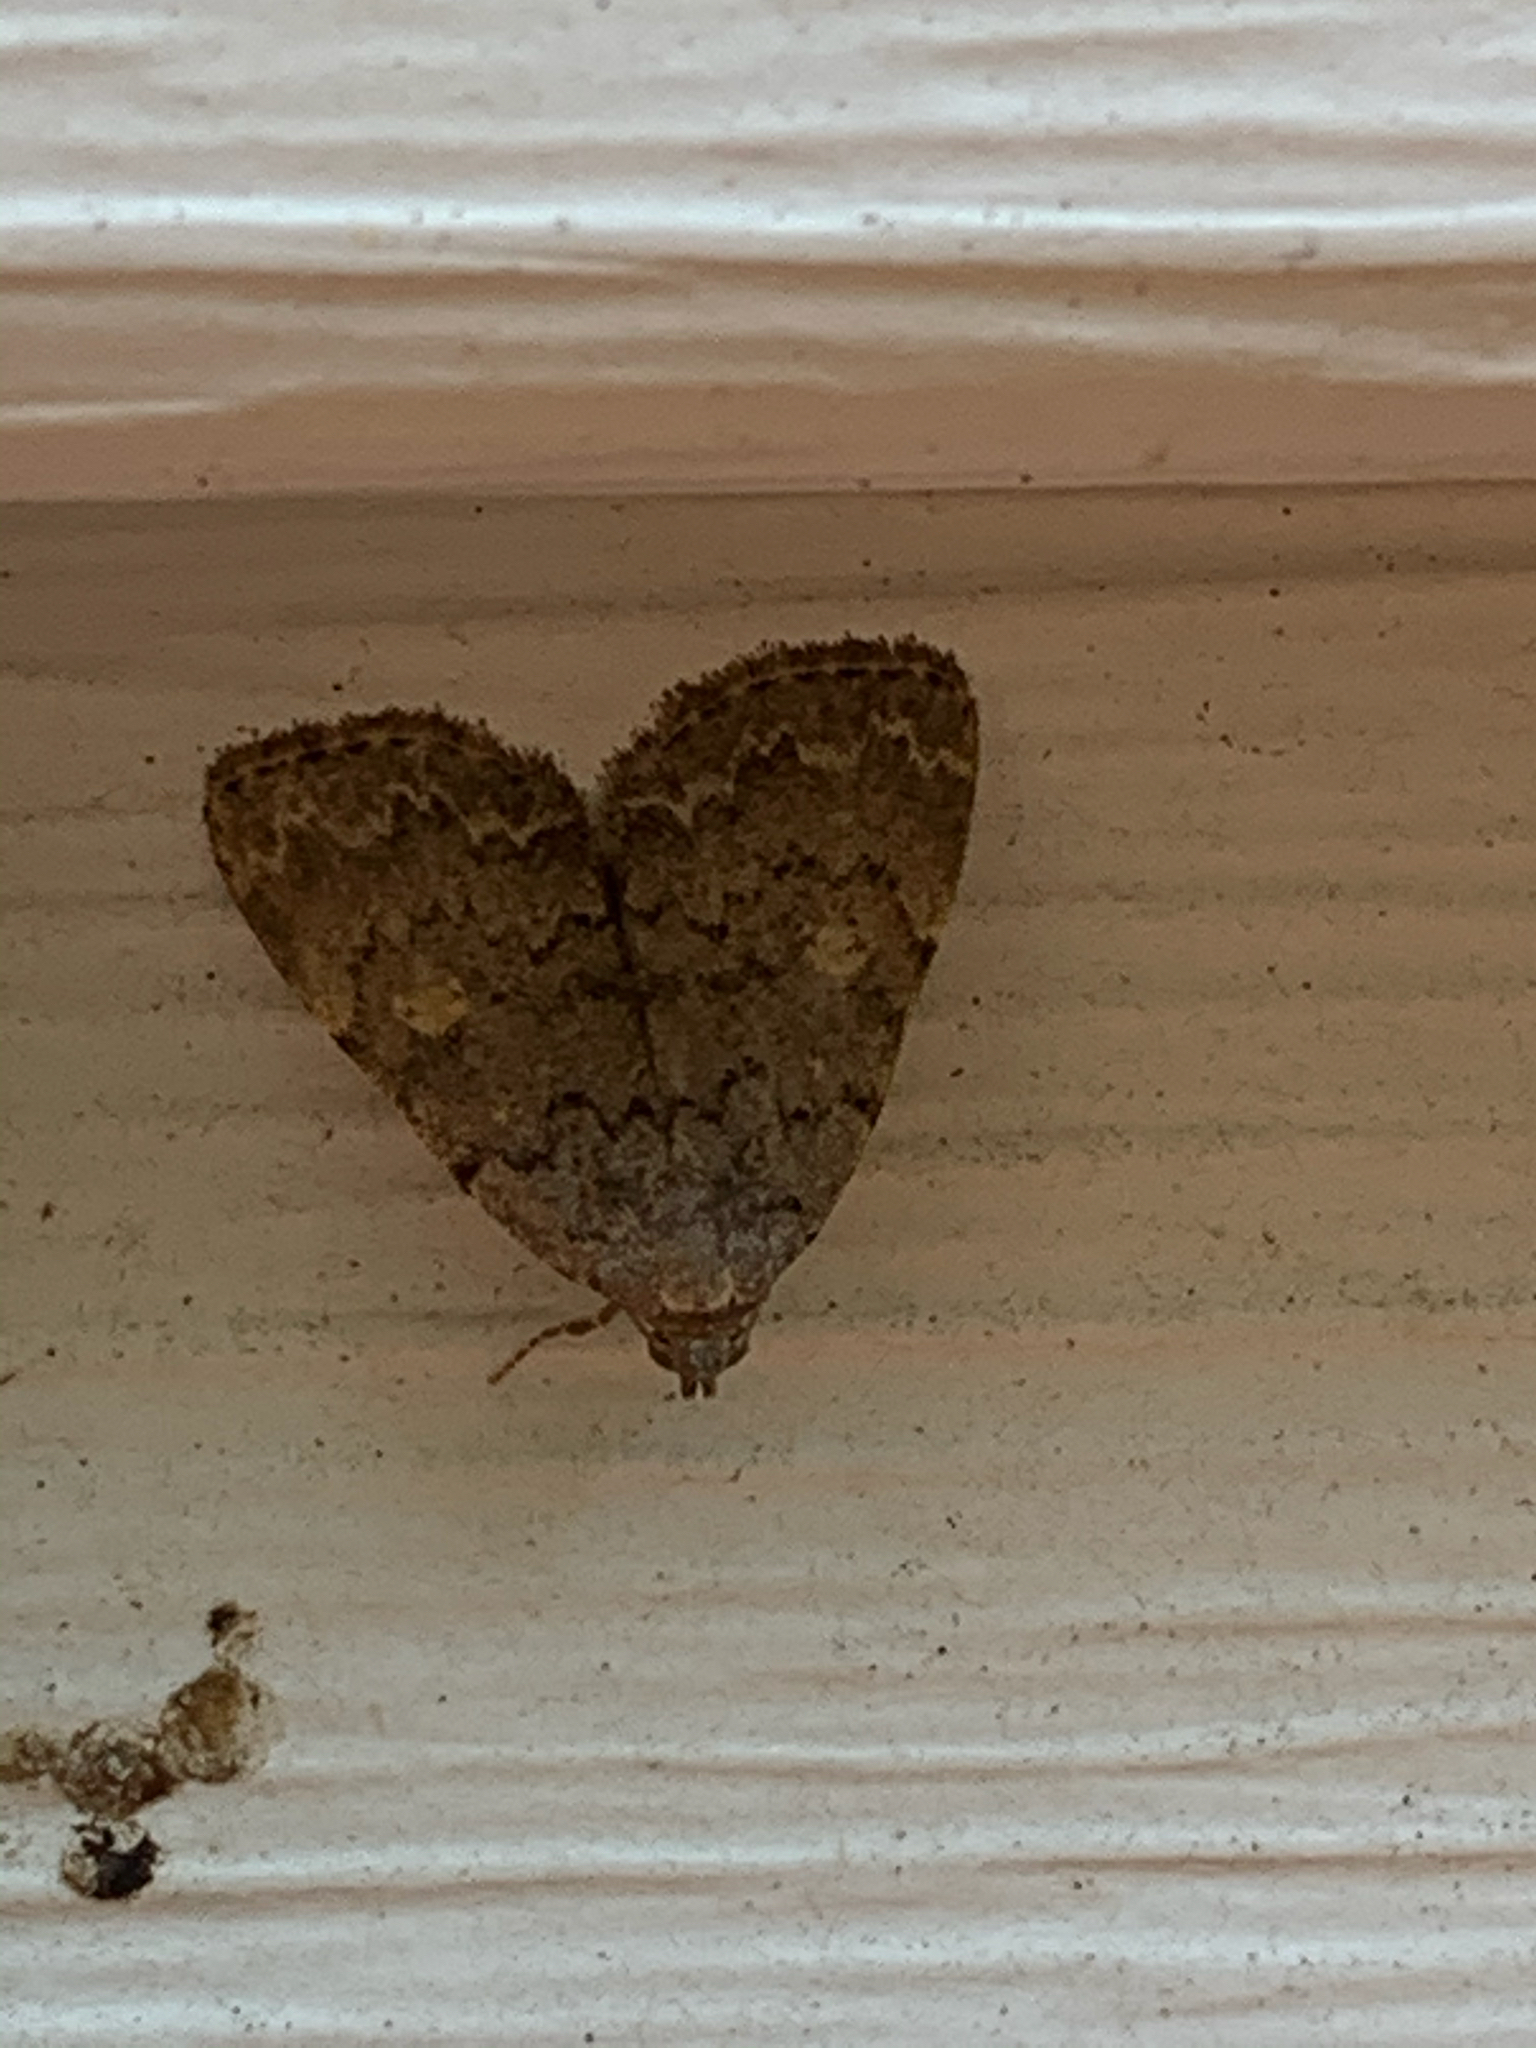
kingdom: Animalia
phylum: Arthropoda
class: Insecta
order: Lepidoptera
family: Erebidae
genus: Idia
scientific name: Idia aemula
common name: Common idia moth
